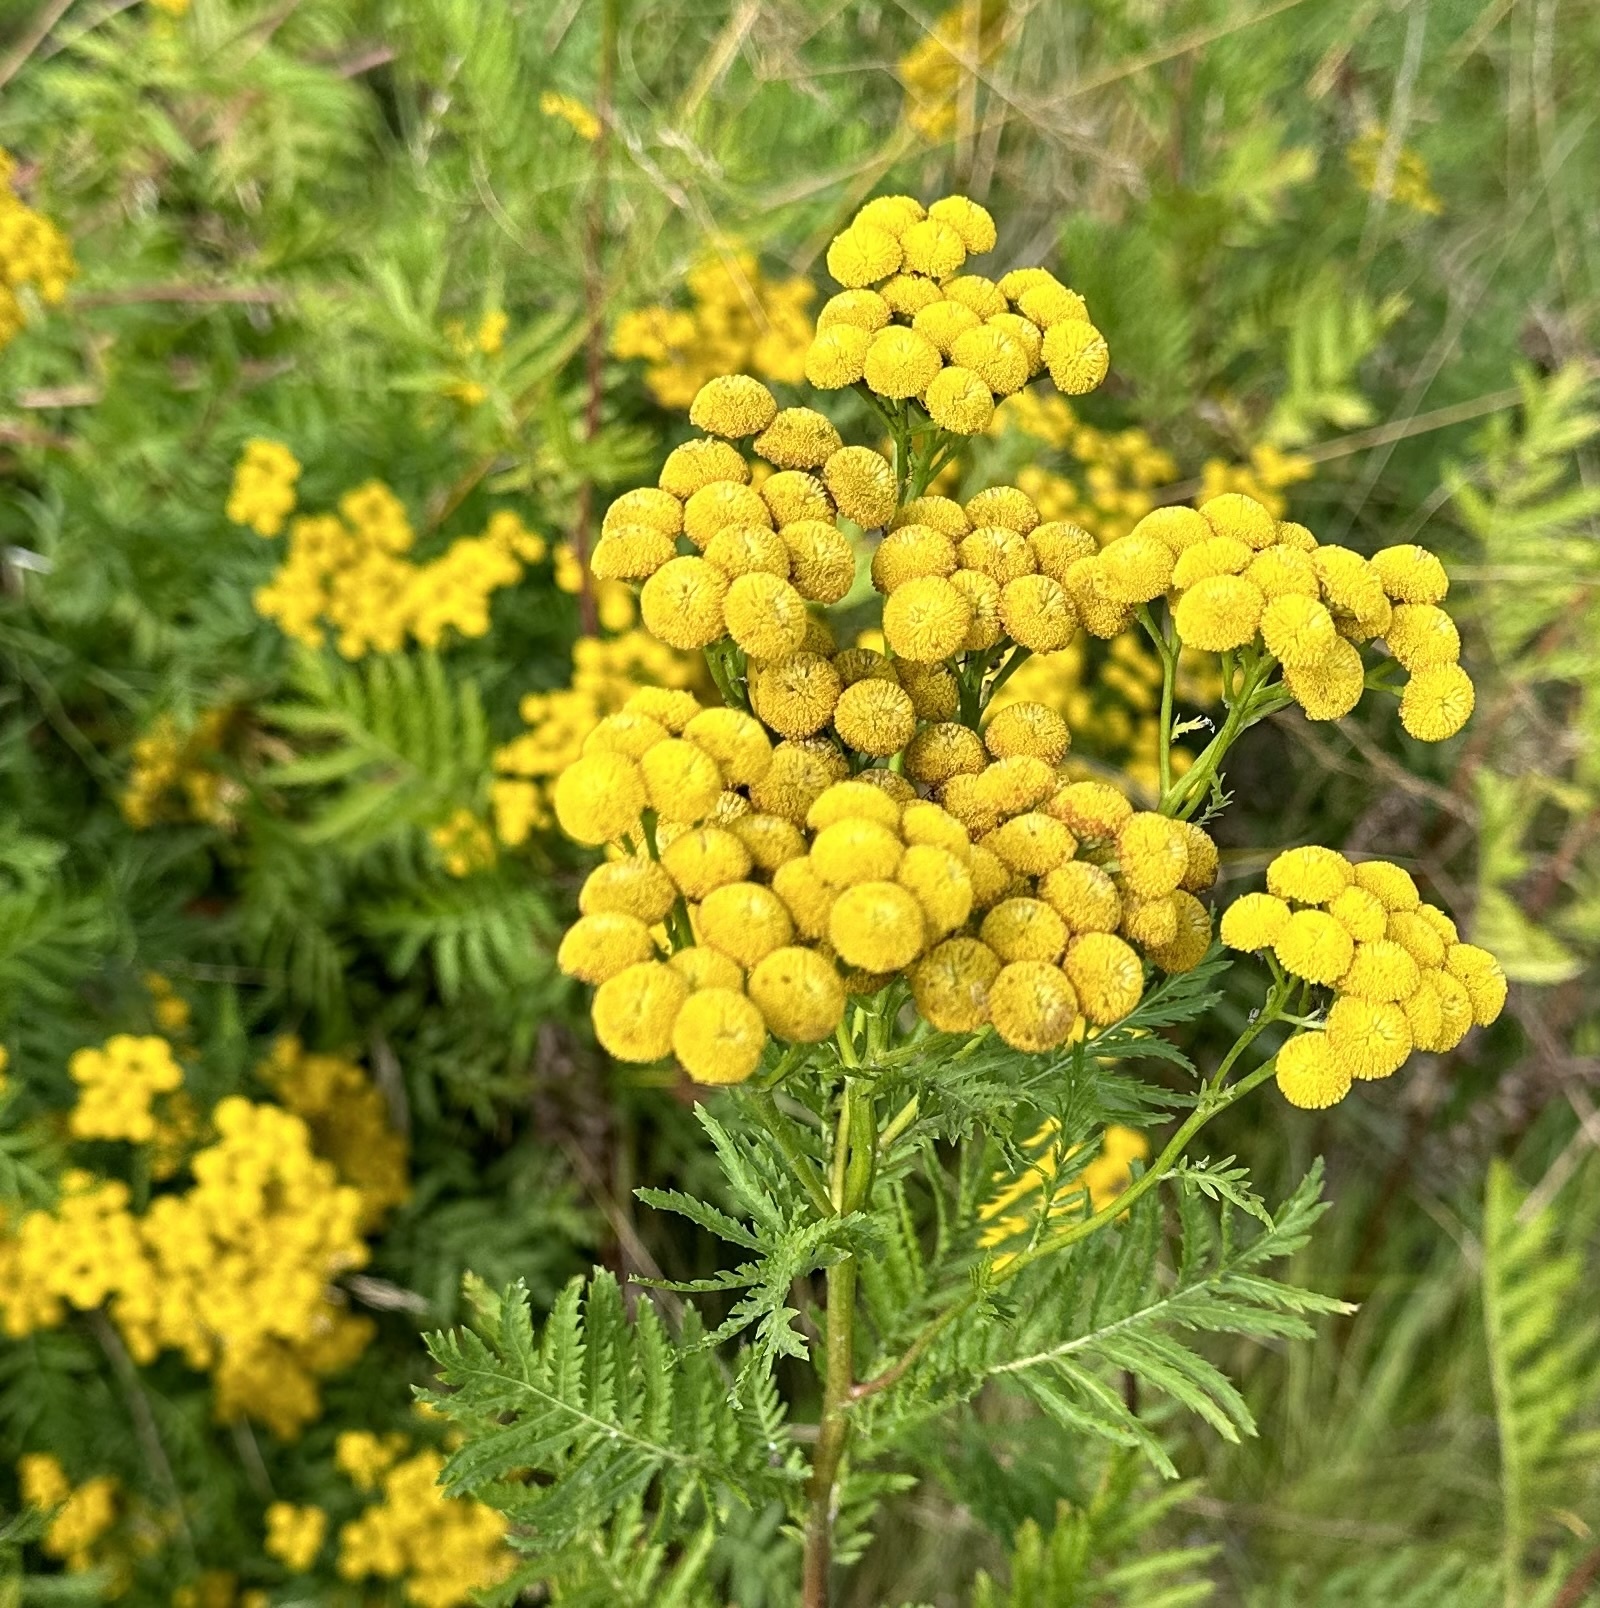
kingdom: Plantae
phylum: Tracheophyta
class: Magnoliopsida
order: Asterales
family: Asteraceae
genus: Tanacetum
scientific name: Tanacetum vulgare
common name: Common tansy
